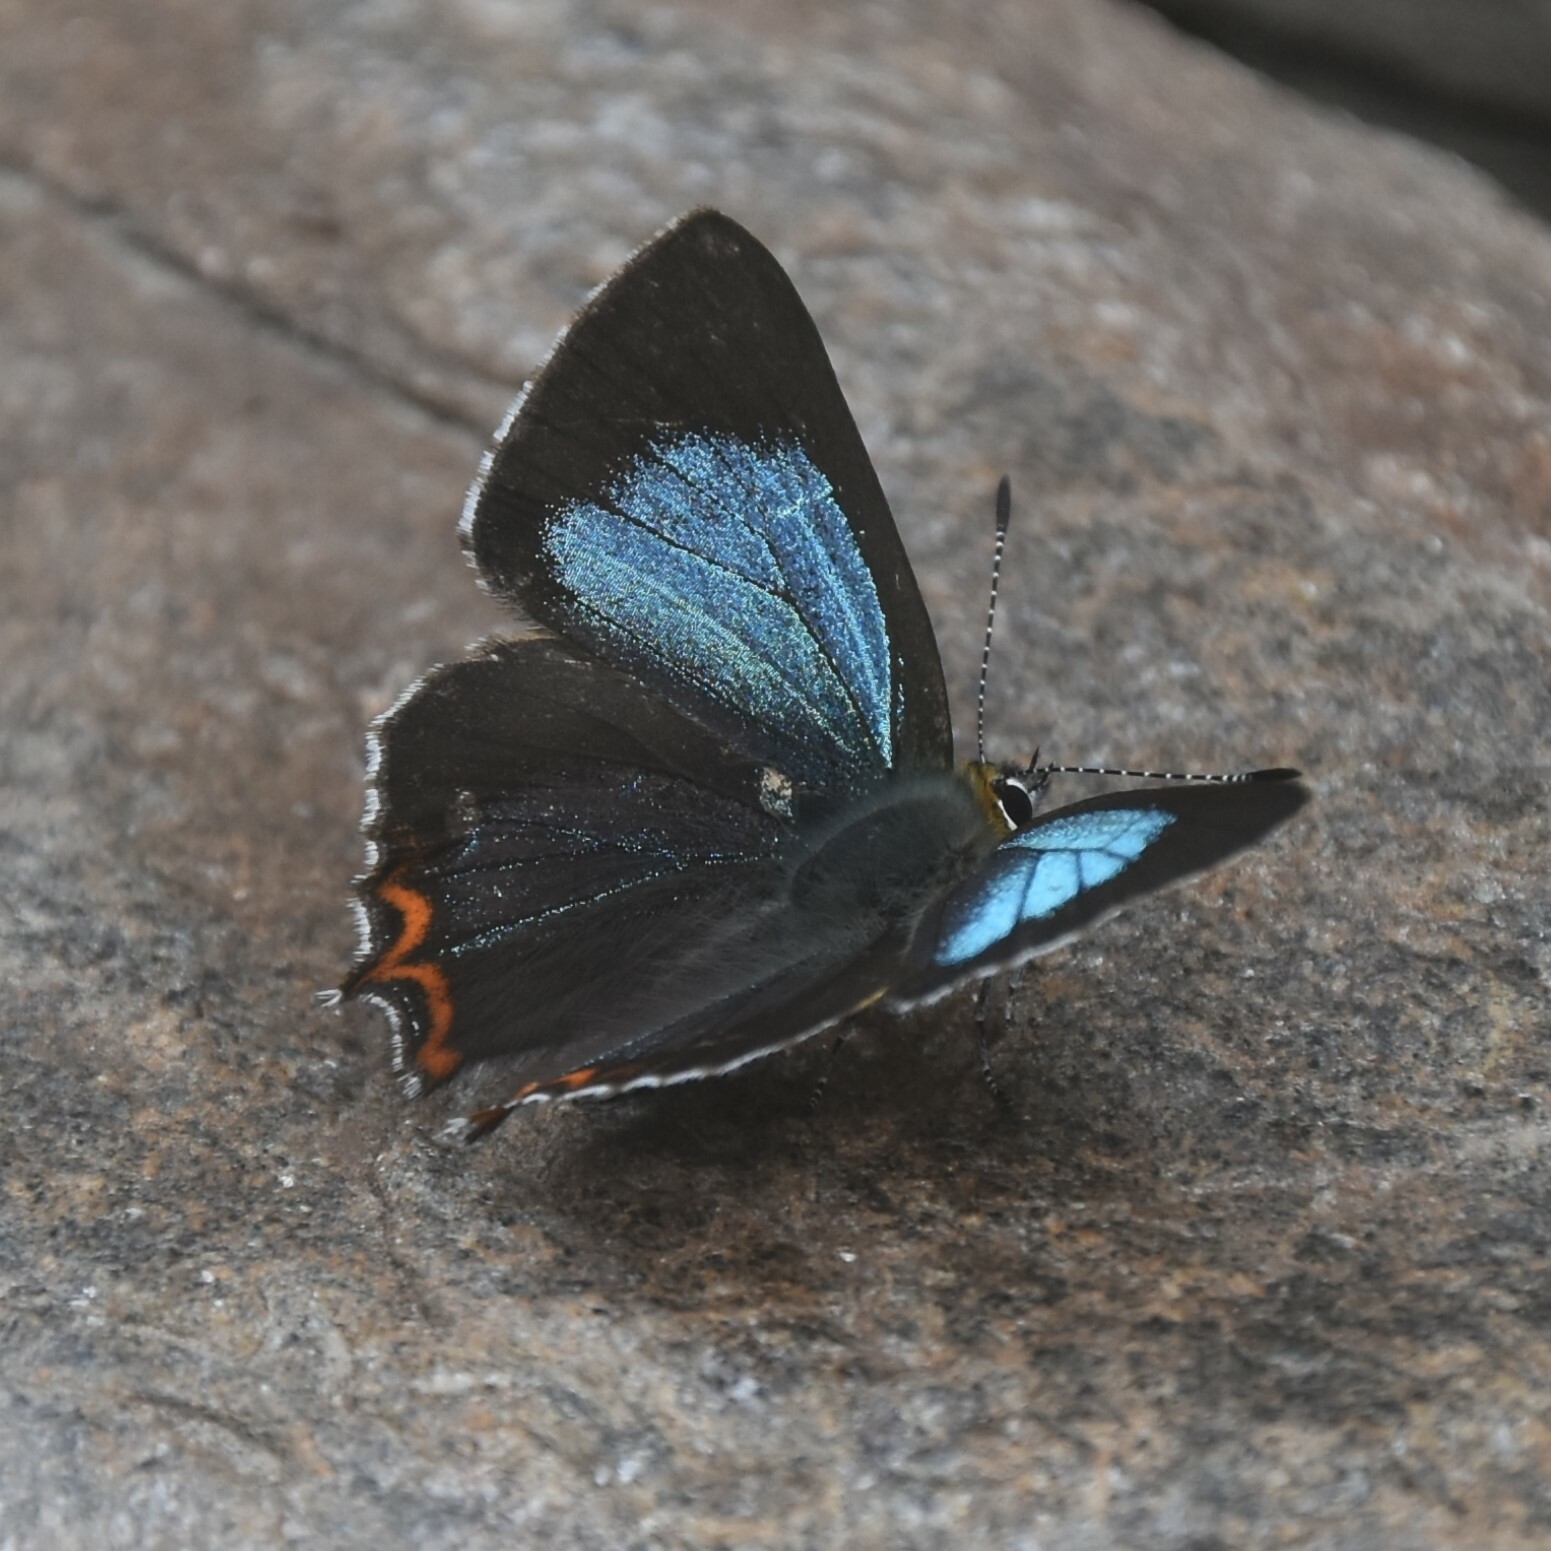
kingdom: Animalia
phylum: Arthropoda
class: Insecta
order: Lepidoptera
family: Lycaenidae
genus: Heliophorus
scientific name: Heliophorus
